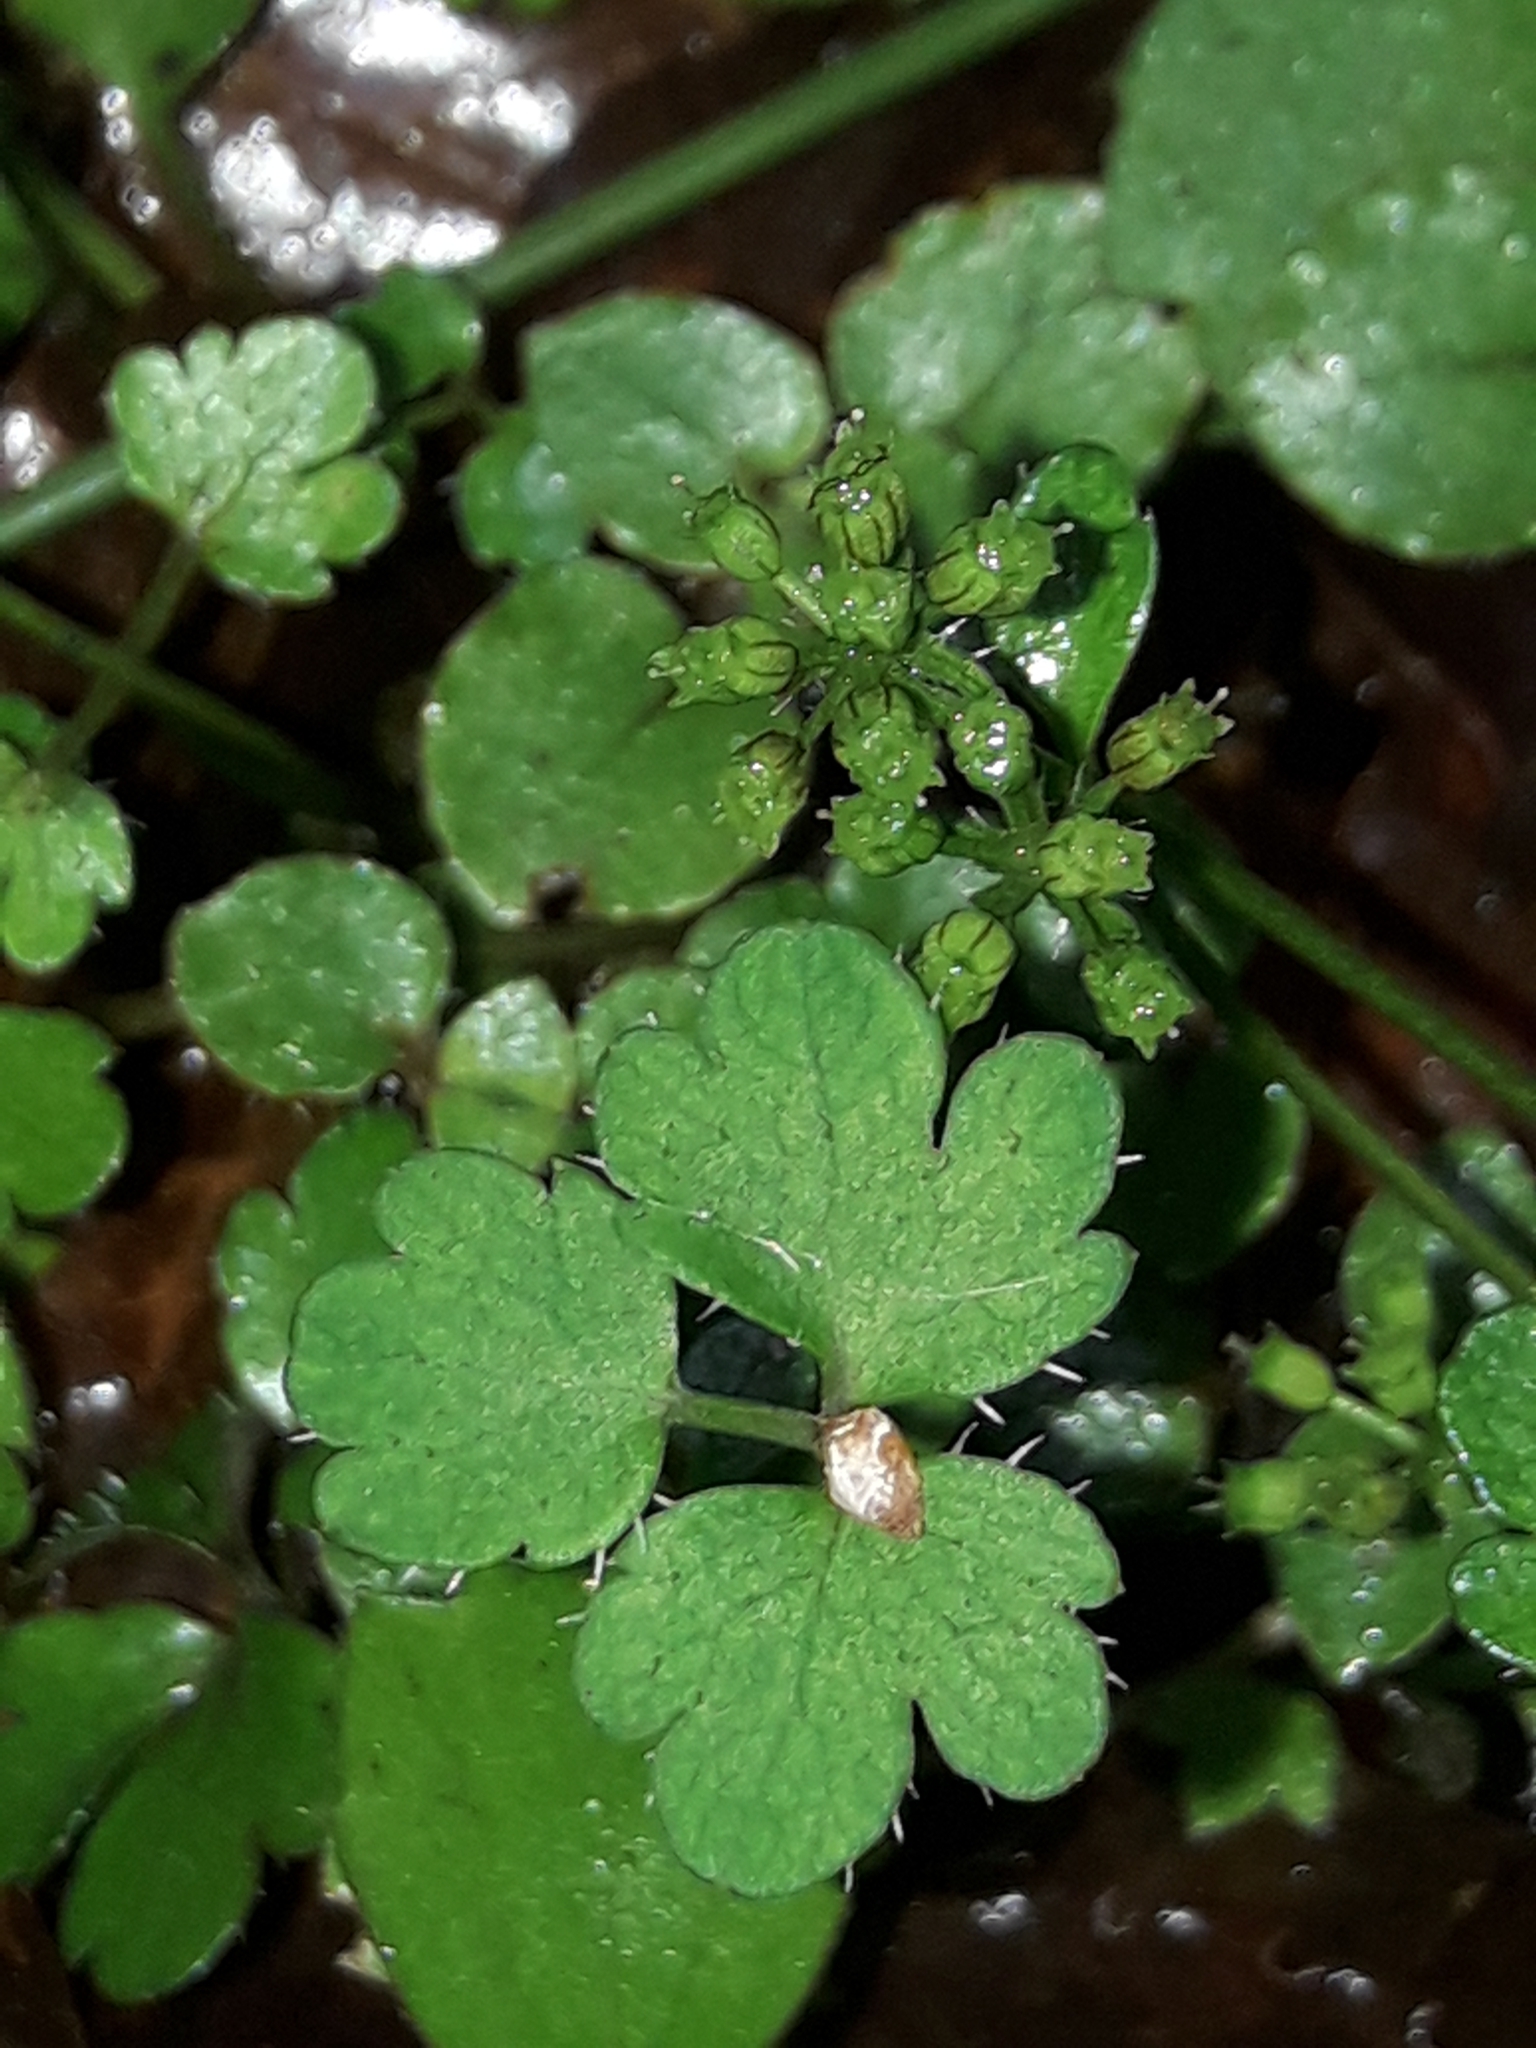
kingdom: Plantae
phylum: Tracheophyta
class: Magnoliopsida
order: Apiales
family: Apiaceae
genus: Azorella
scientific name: Azorella hookeri
